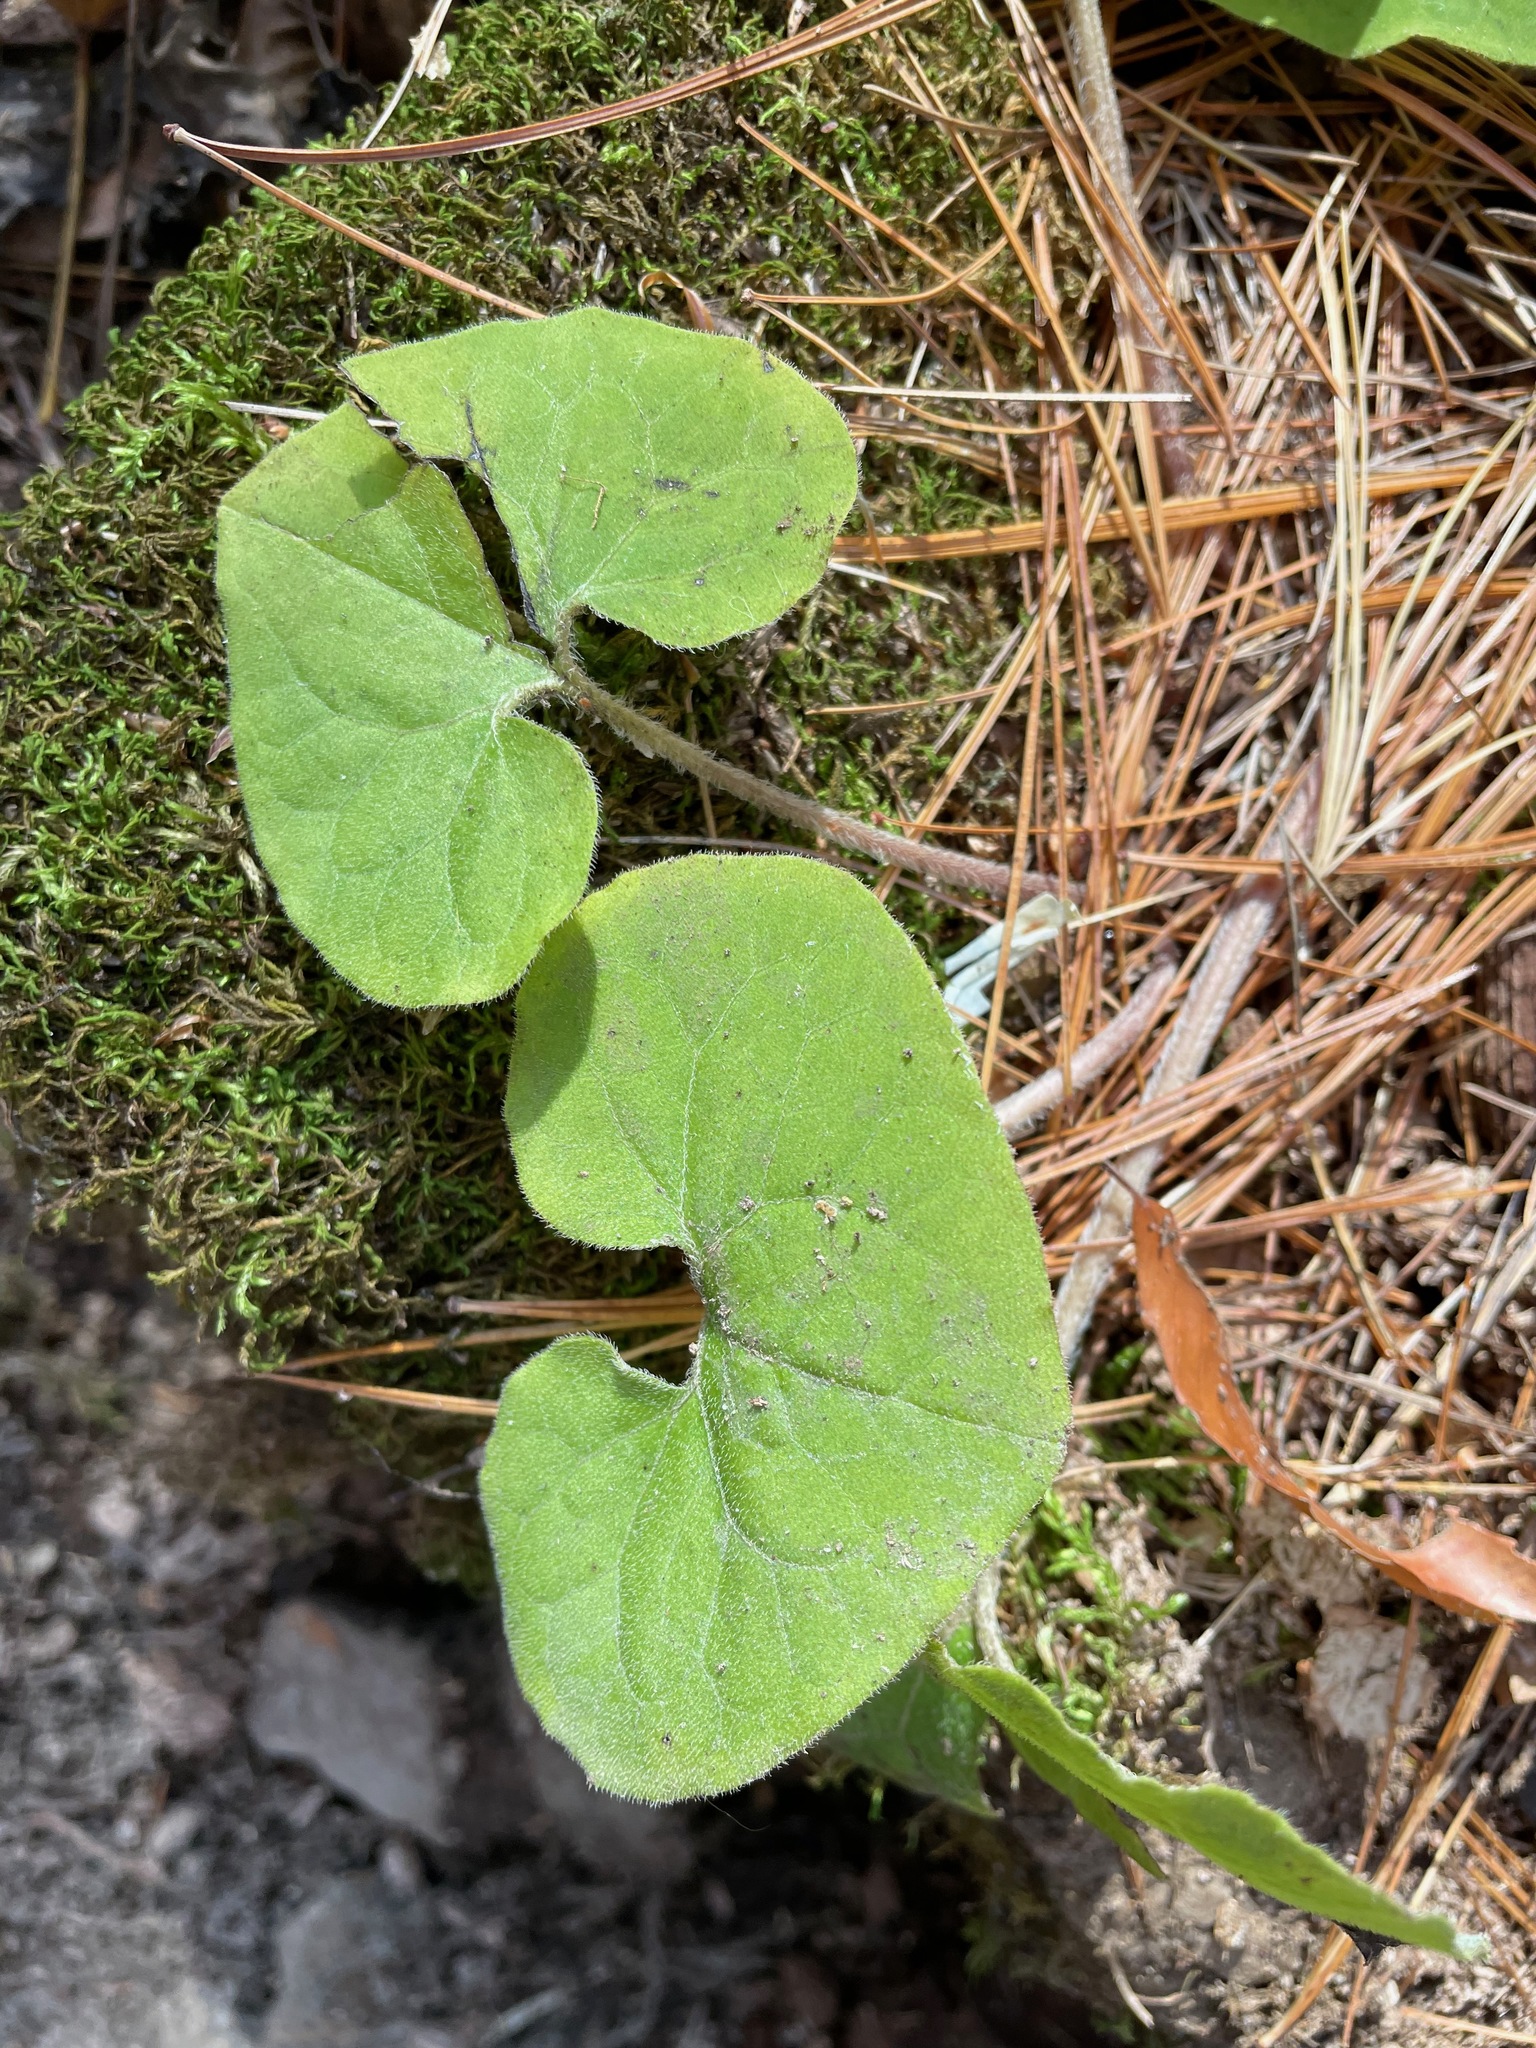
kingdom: Plantae
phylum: Tracheophyta
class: Magnoliopsida
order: Piperales
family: Aristolochiaceae
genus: Asarum
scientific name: Asarum canadense
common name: Wild ginger
